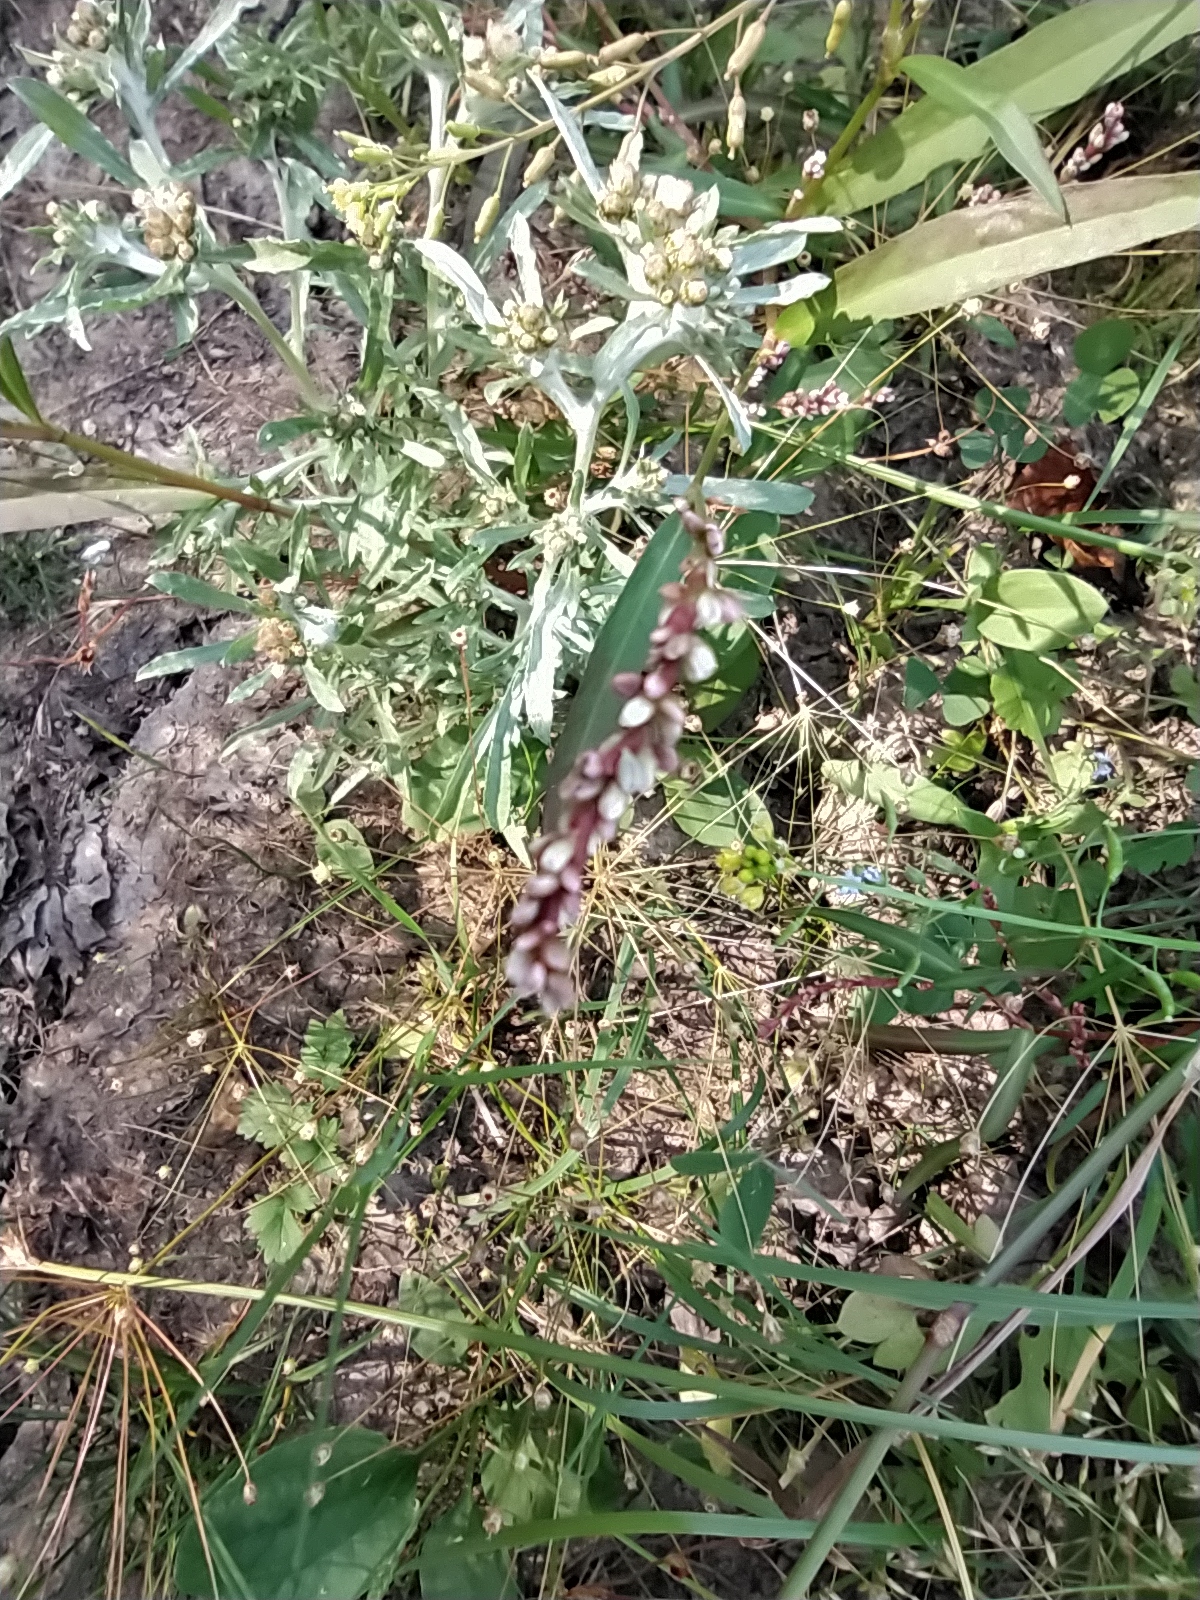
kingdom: Plantae
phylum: Tracheophyta
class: Magnoliopsida
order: Caryophyllales
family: Polygonaceae
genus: Persicaria
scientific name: Persicaria minor
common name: Small water-pepper
